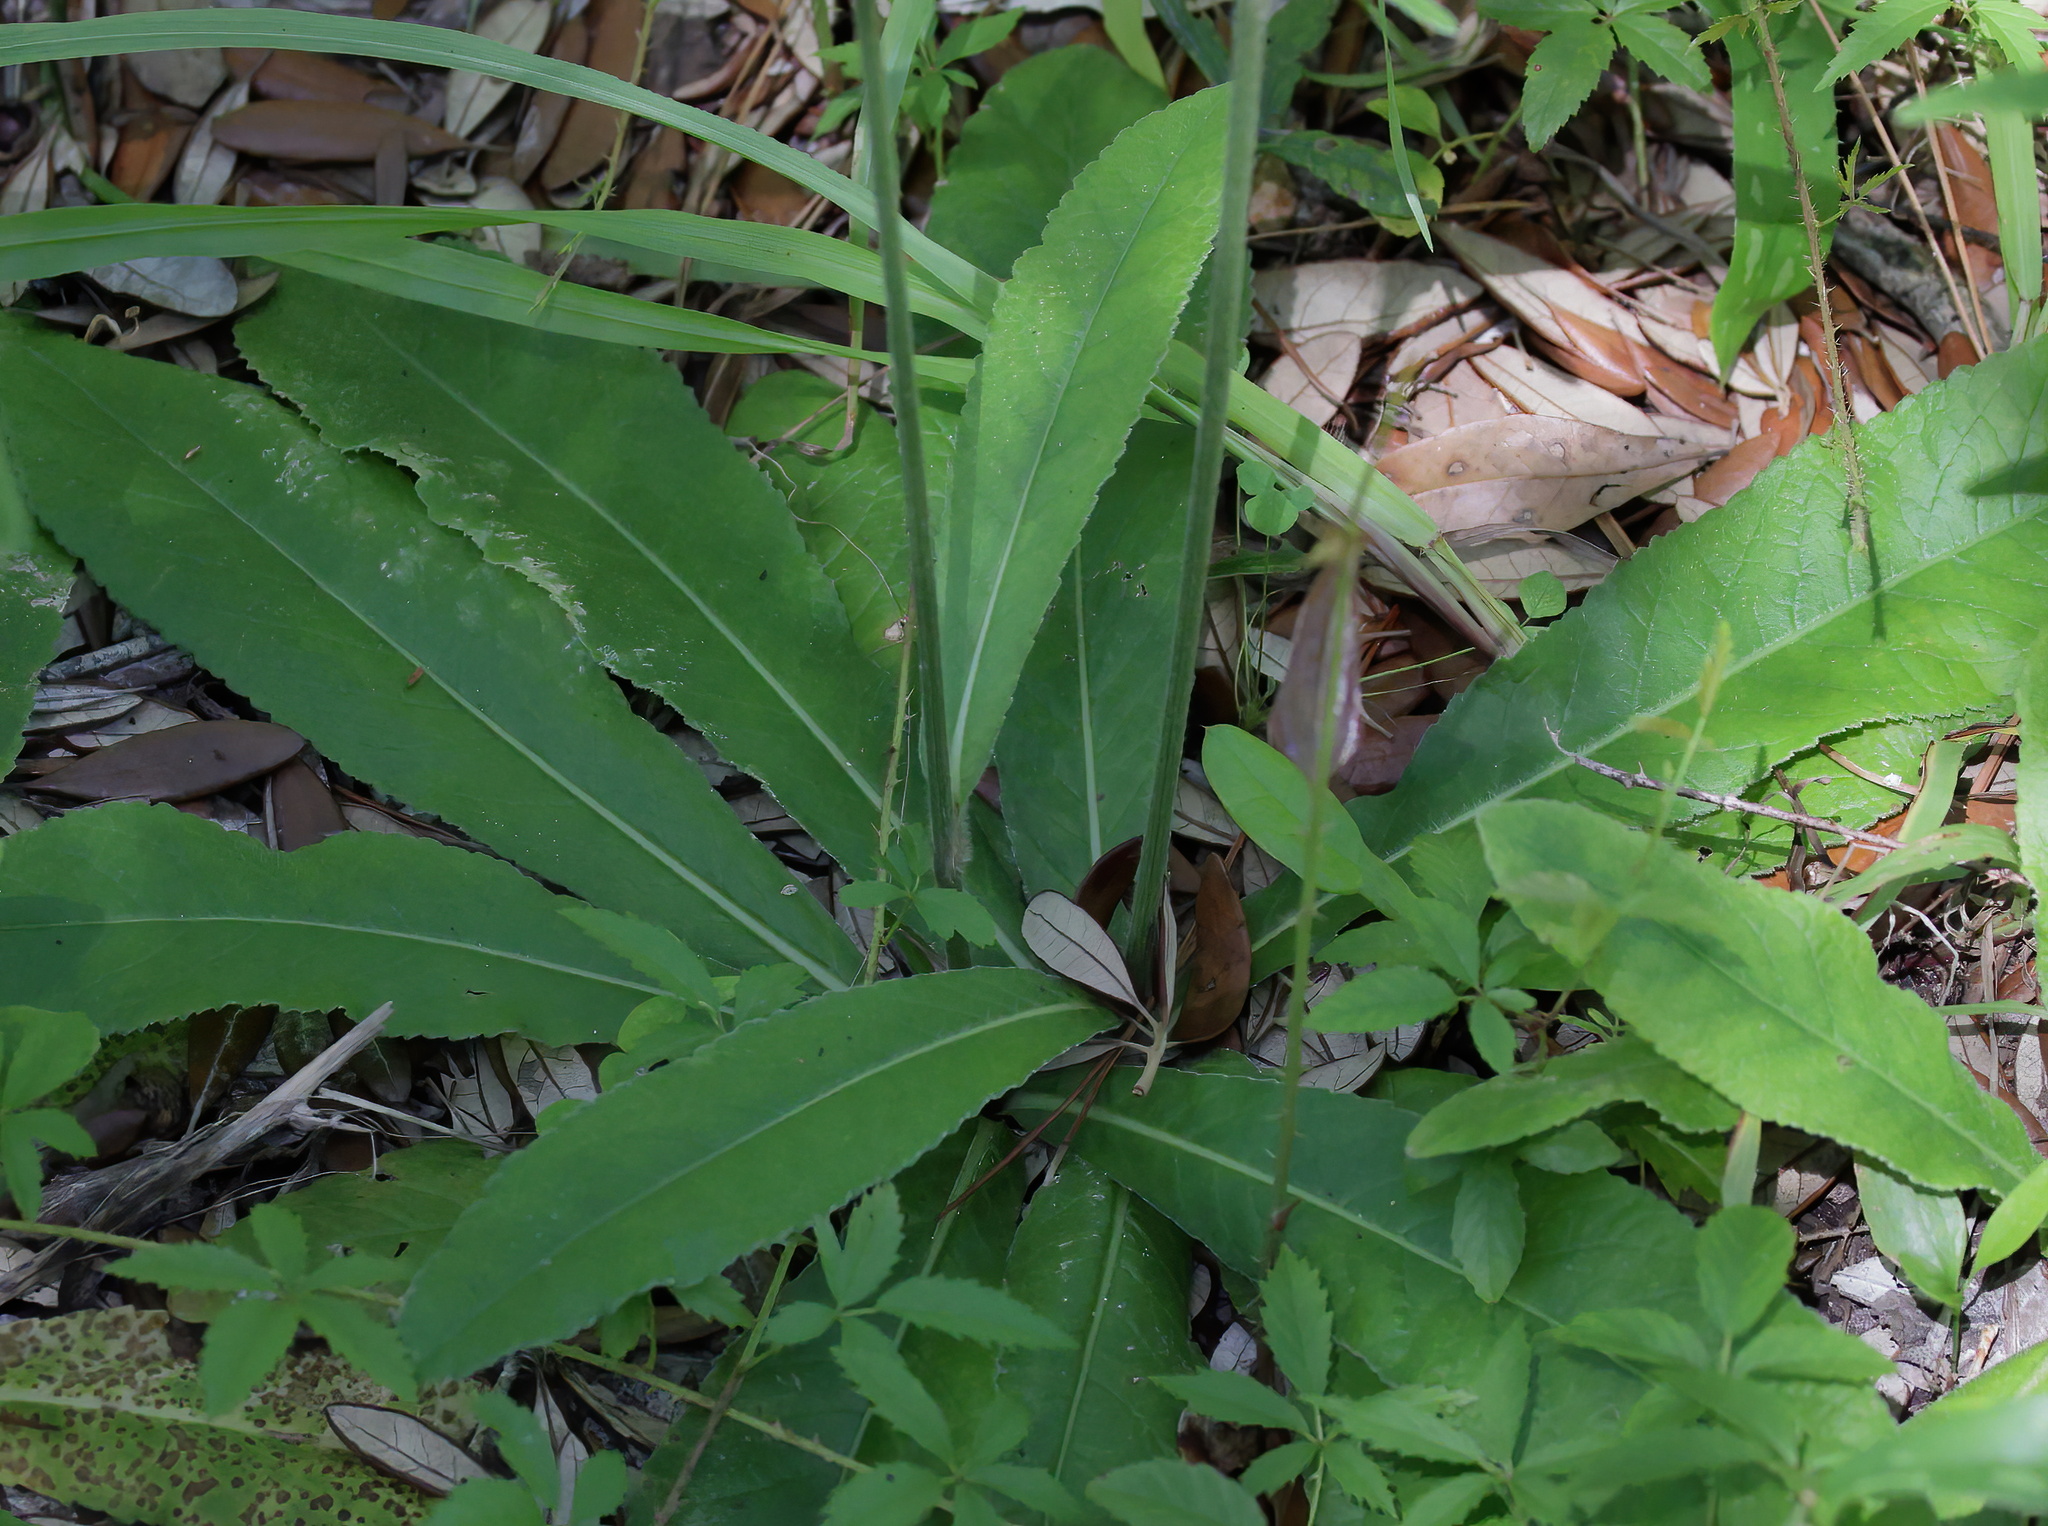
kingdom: Plantae
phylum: Tracheophyta
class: Magnoliopsida
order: Asterales
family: Asteraceae
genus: Elephantopus
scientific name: Elephantopus elatus
